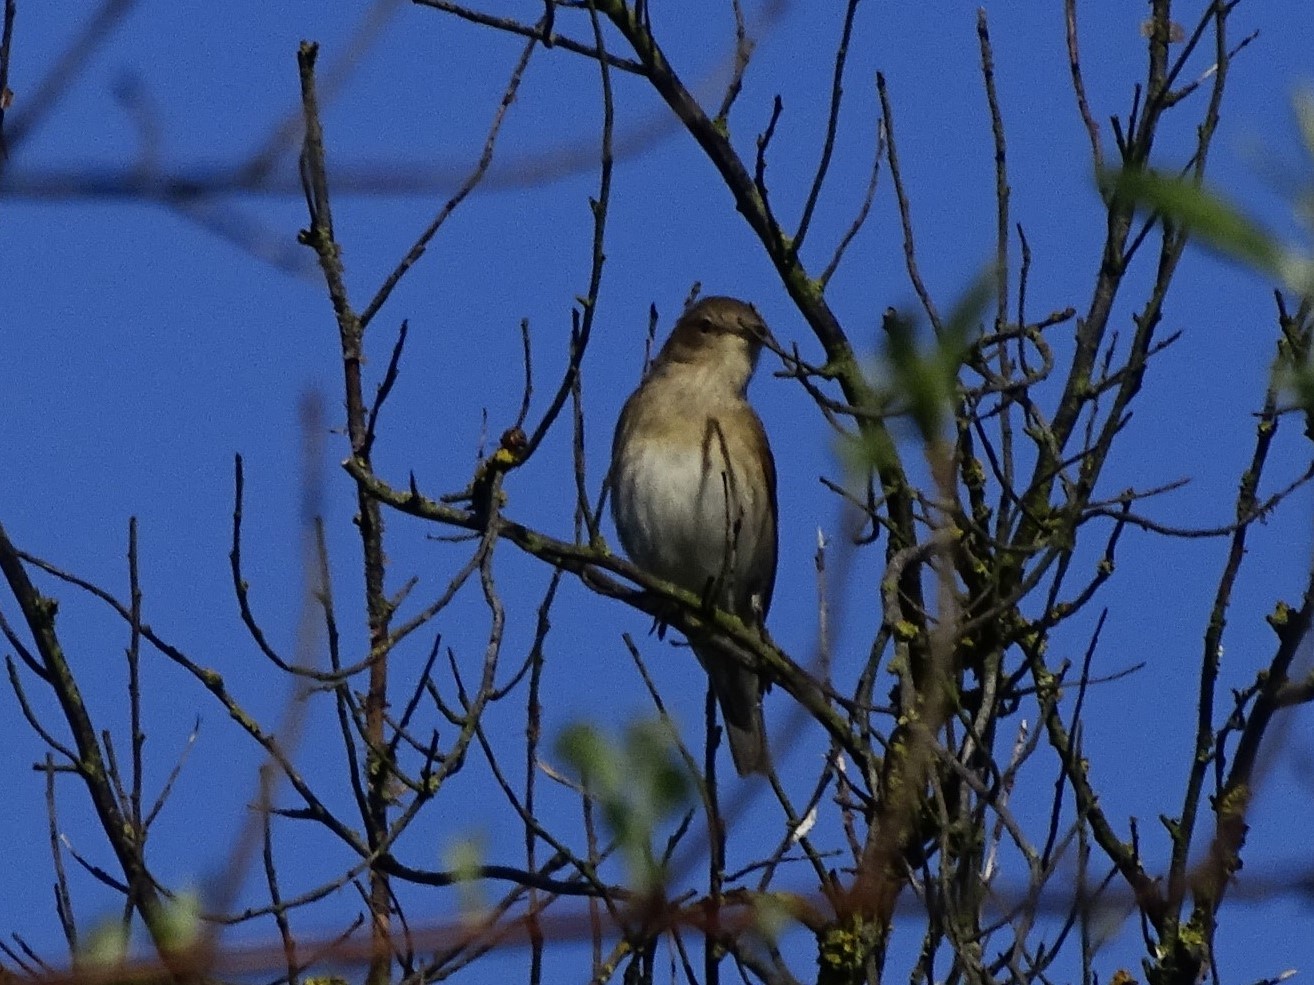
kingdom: Animalia
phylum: Chordata
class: Aves
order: Passeriformes
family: Sylviidae
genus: Sylvia
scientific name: Sylvia borin
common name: Garden warbler
